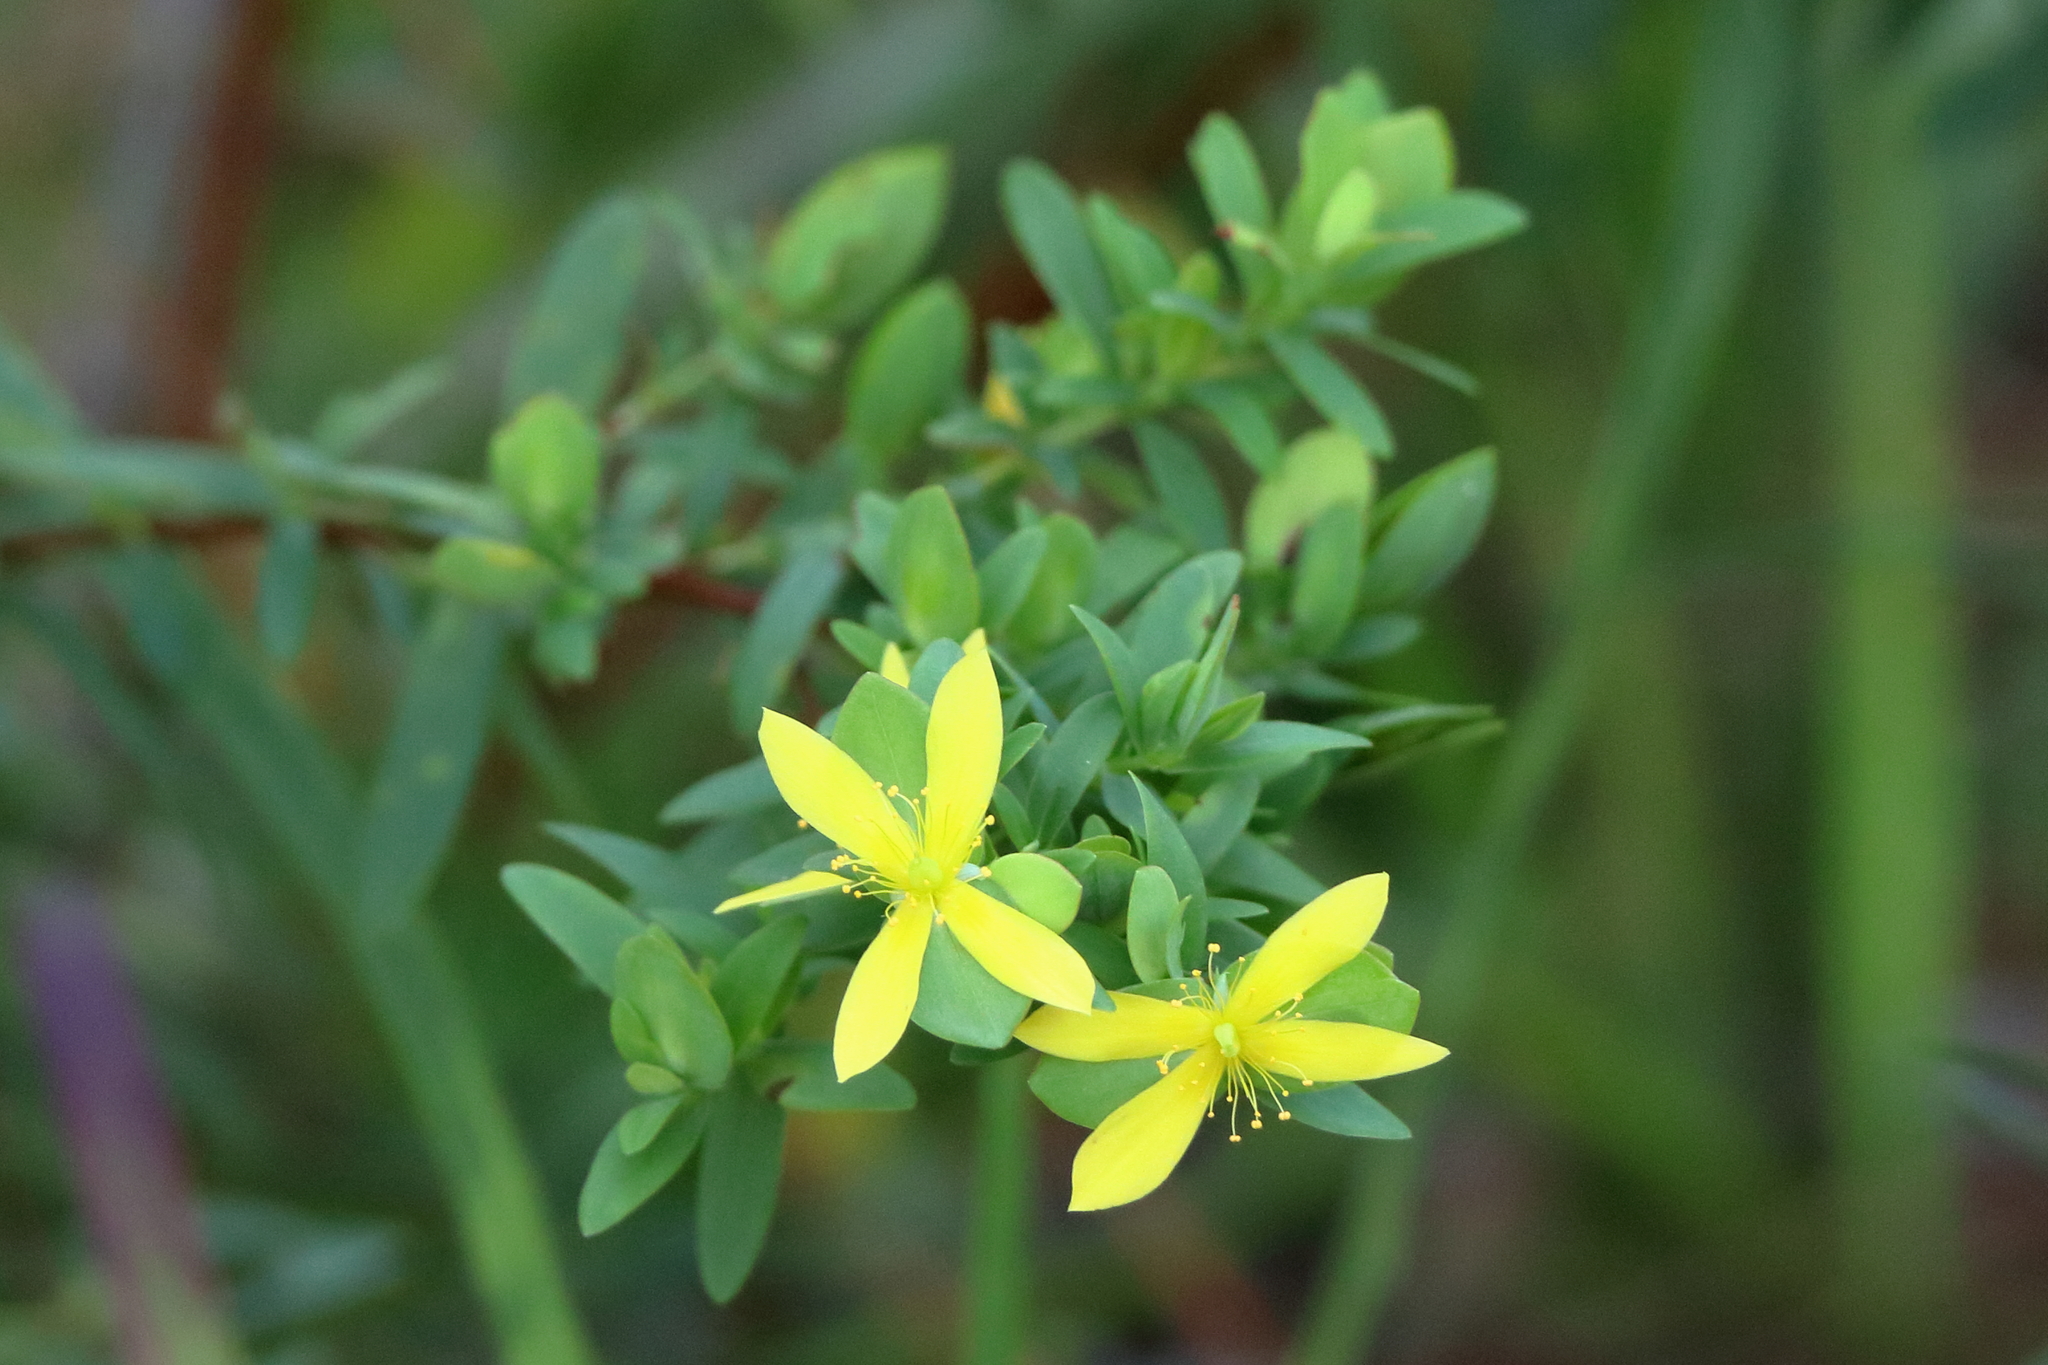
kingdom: Plantae
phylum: Tracheophyta
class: Magnoliopsida
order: Malpighiales
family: Hypericaceae
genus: Hypericum
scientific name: Hypericum hypericoides
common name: St. andrew's cross
